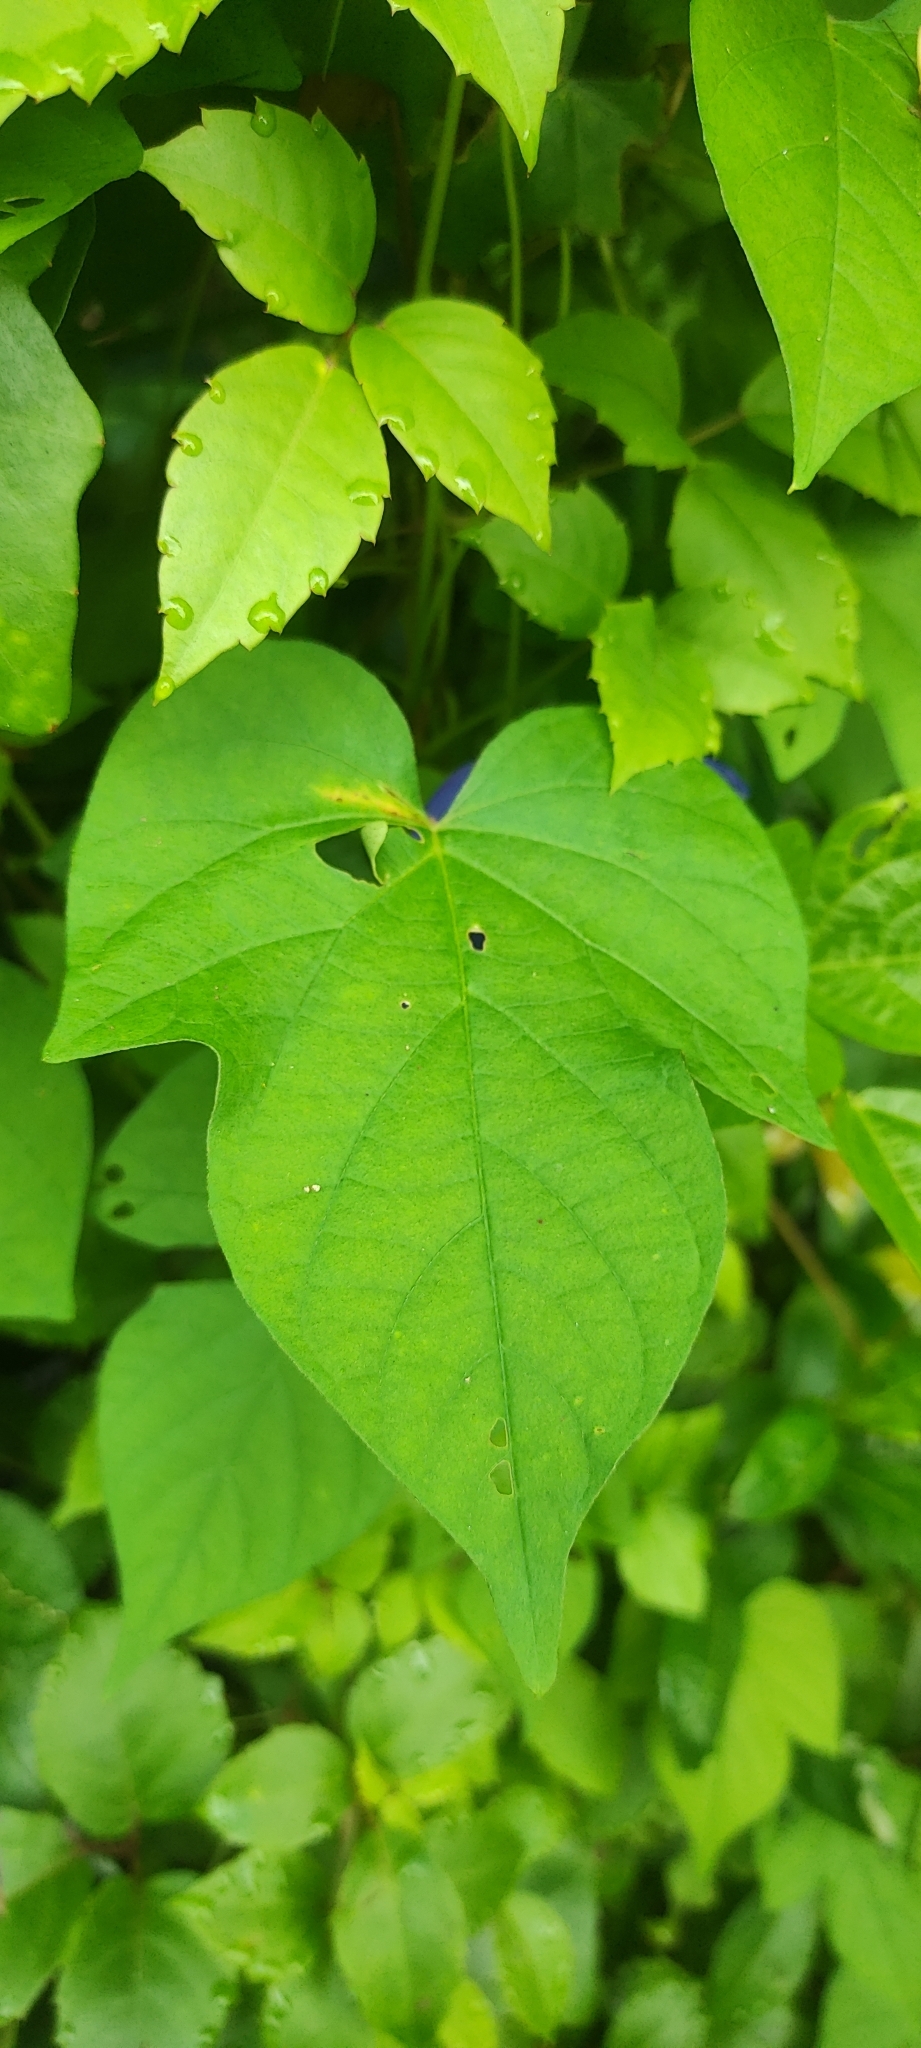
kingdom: Plantae
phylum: Tracheophyta
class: Magnoliopsida
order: Solanales
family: Convolvulaceae
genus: Ipomoea
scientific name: Ipomoea indica
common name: Blue dawnflower
